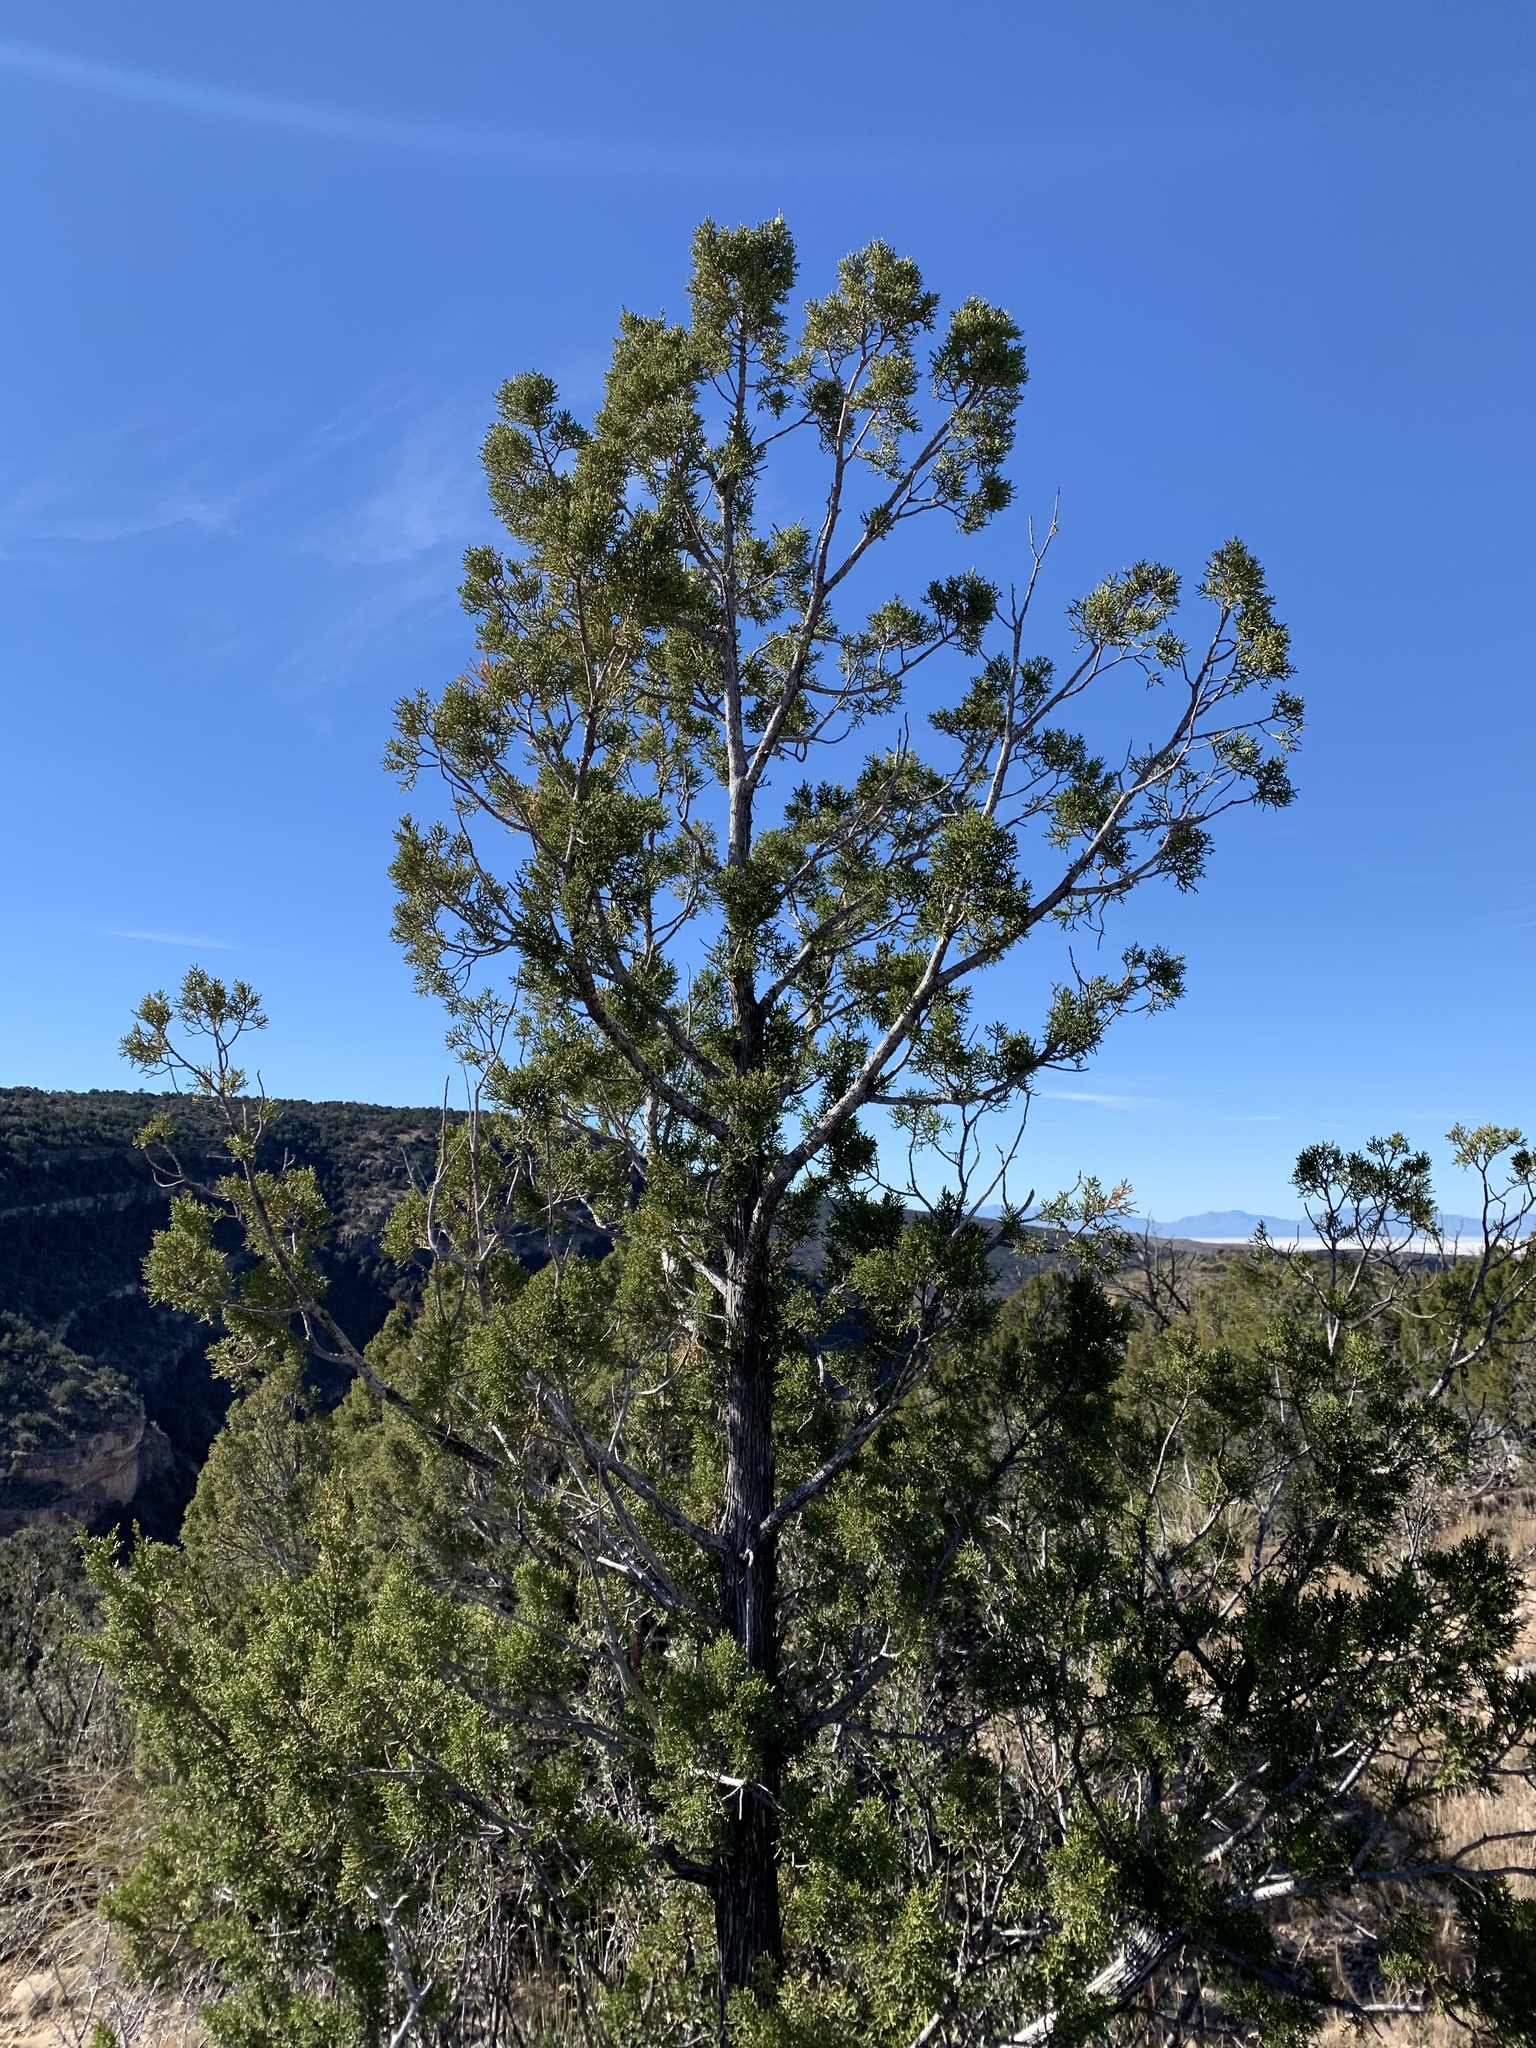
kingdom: Plantae
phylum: Tracheophyta
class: Pinopsida
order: Pinales
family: Cupressaceae
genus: Juniperus
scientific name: Juniperus monosperma
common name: One-seed juniper
